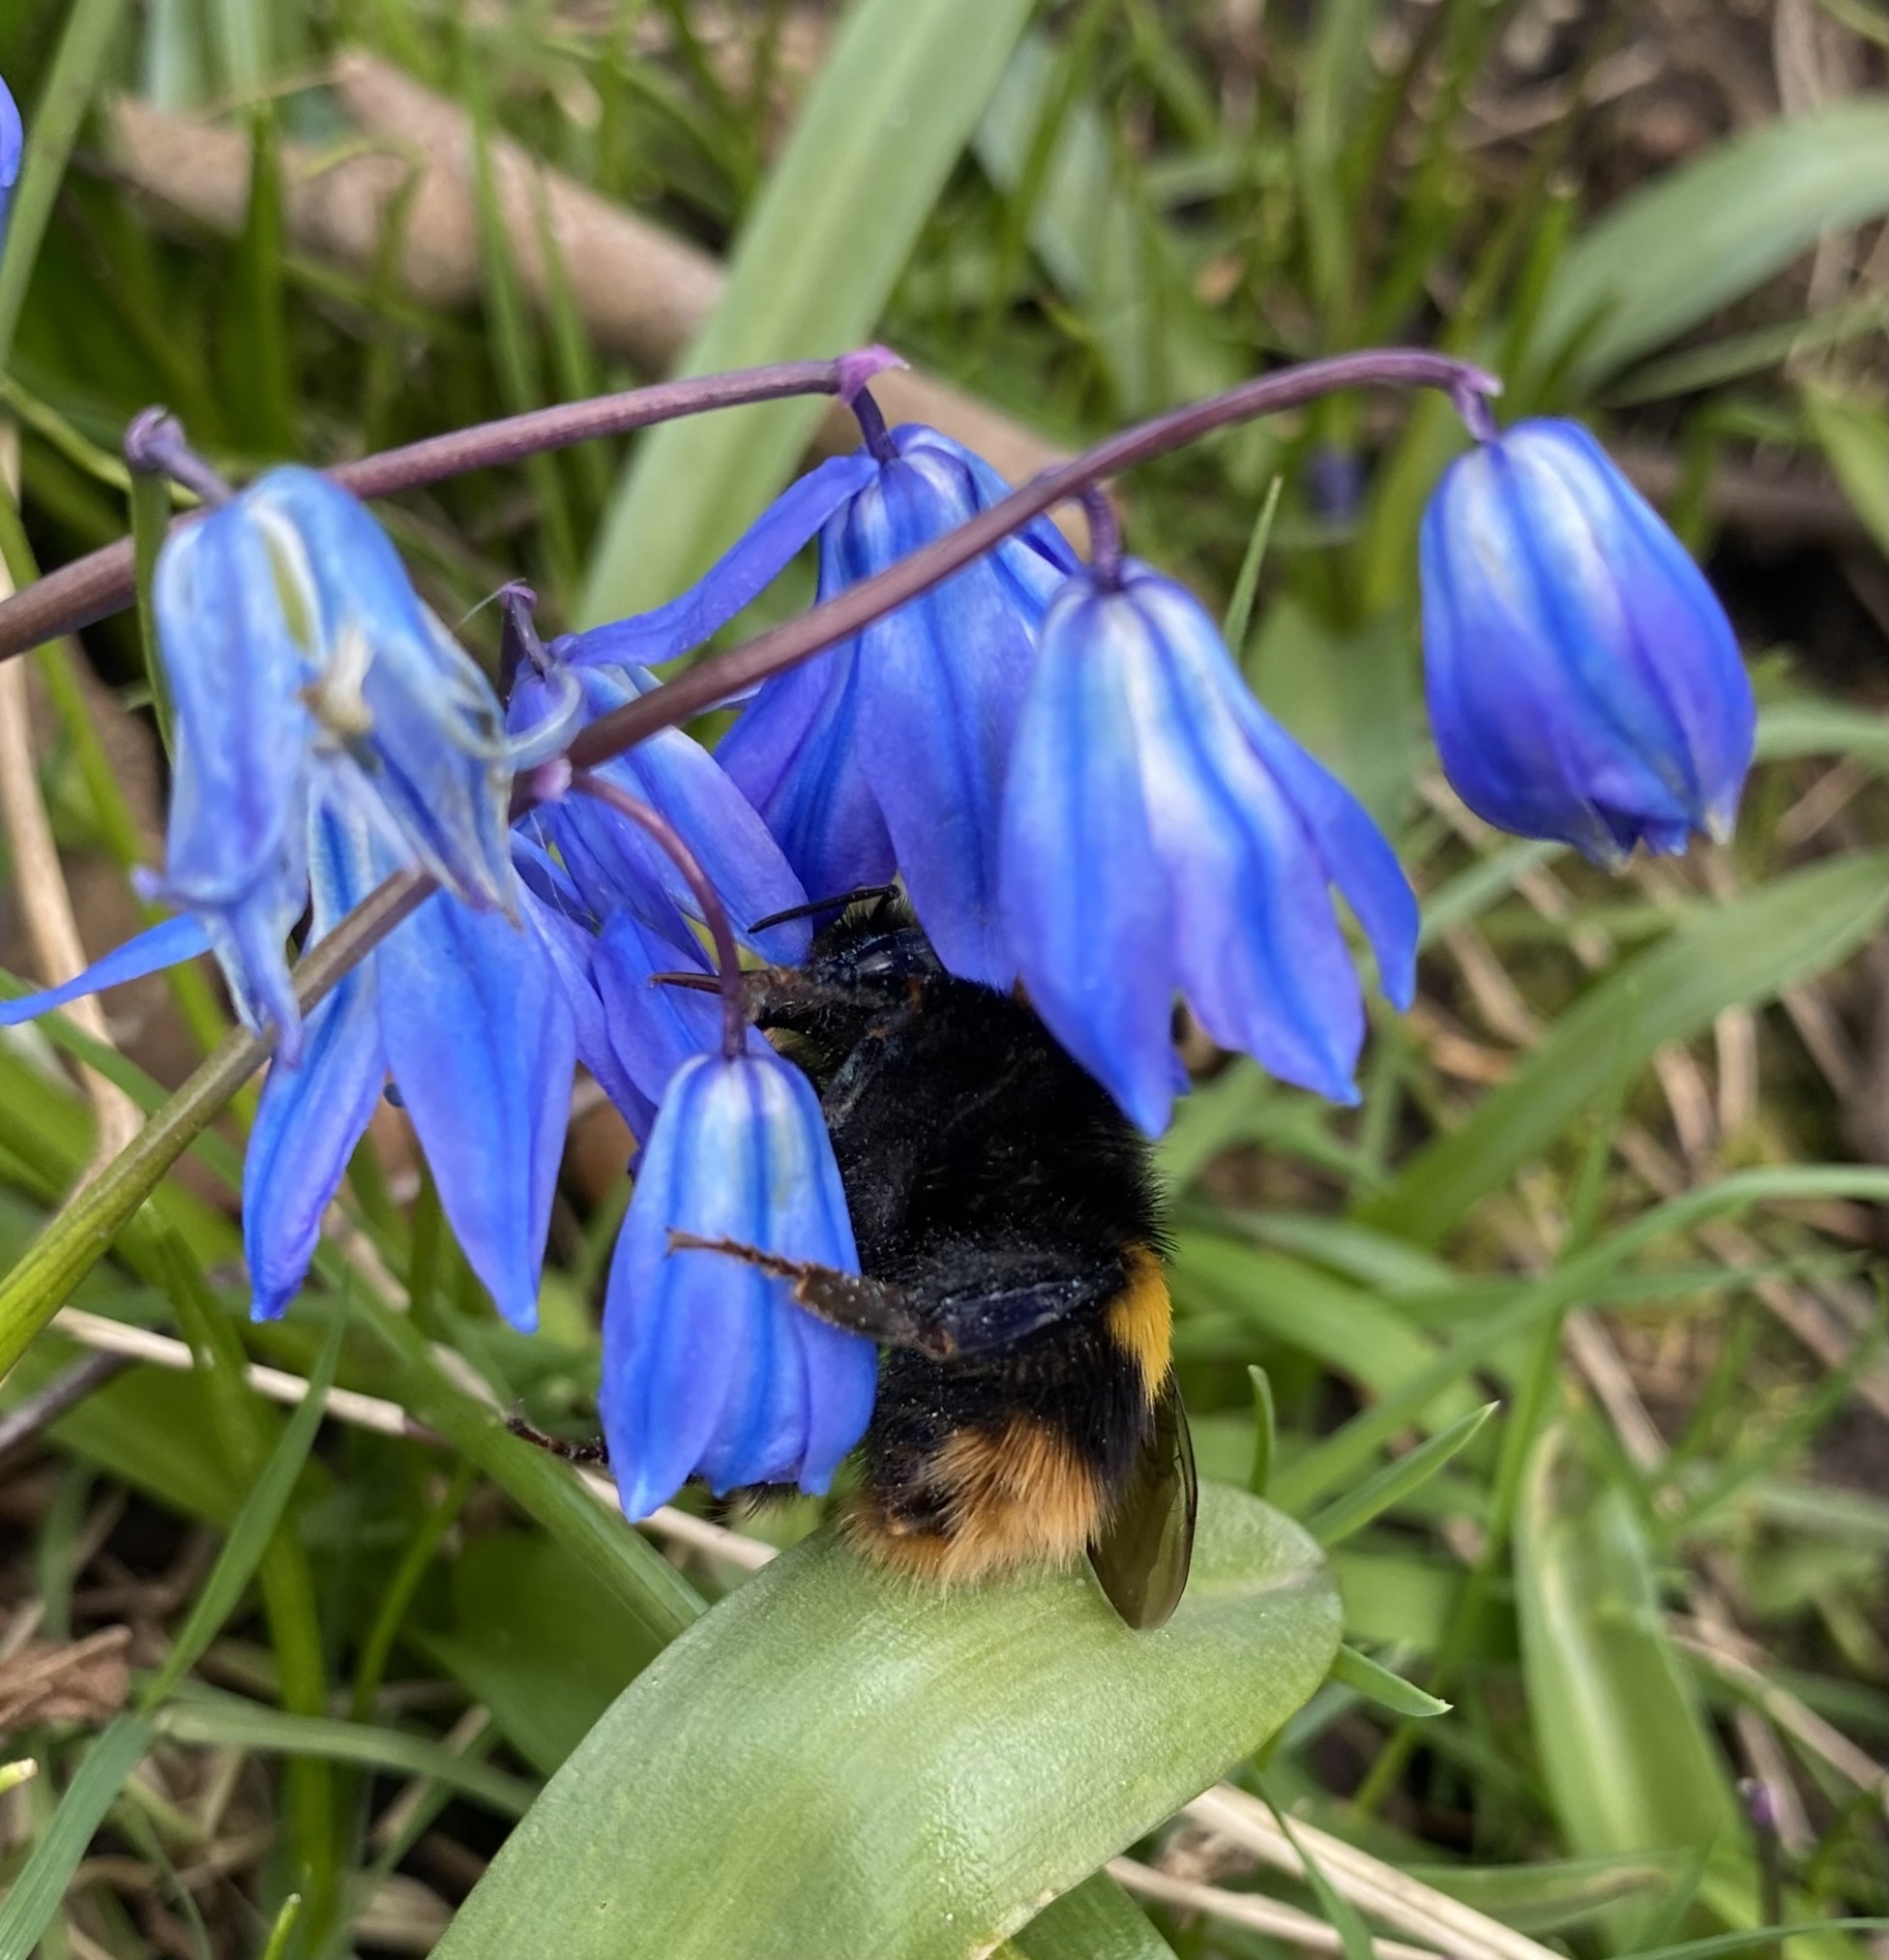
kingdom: Animalia
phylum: Arthropoda
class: Insecta
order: Hymenoptera
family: Apidae
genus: Bombus
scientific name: Bombus terrestris
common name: Buff-tailed bumblebee
